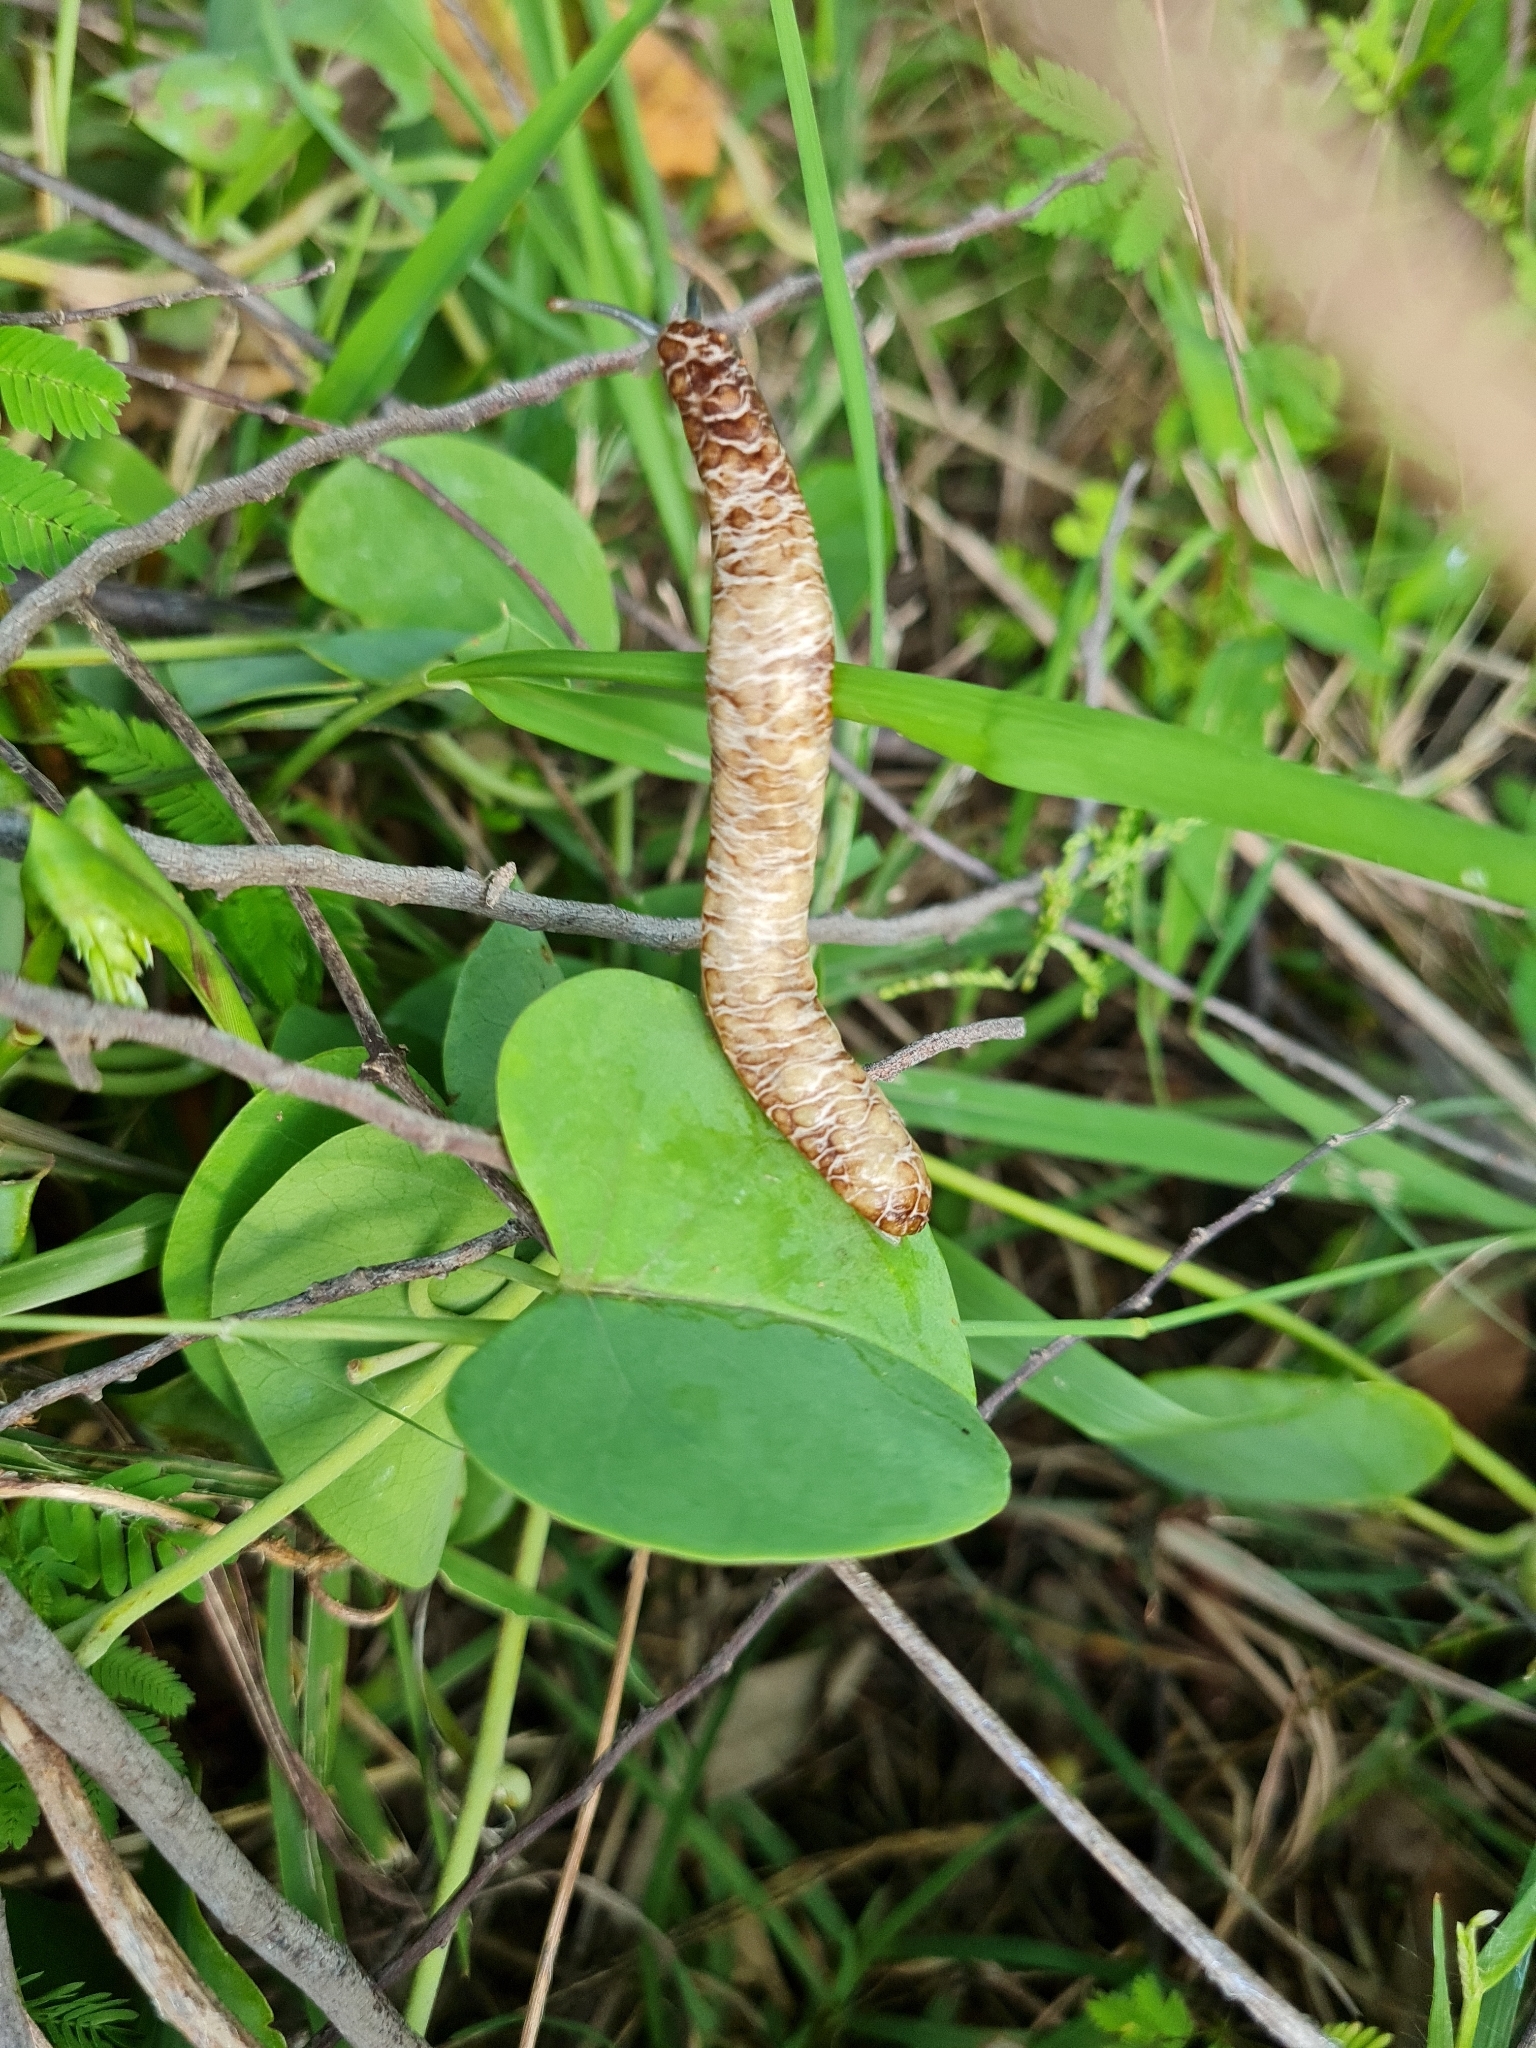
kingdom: Animalia
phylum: Mollusca
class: Gastropoda
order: Systellommatophora
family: Veronicellidae
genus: Laevicaulis
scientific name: Laevicaulis haroldi
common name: Caterpillar slug
